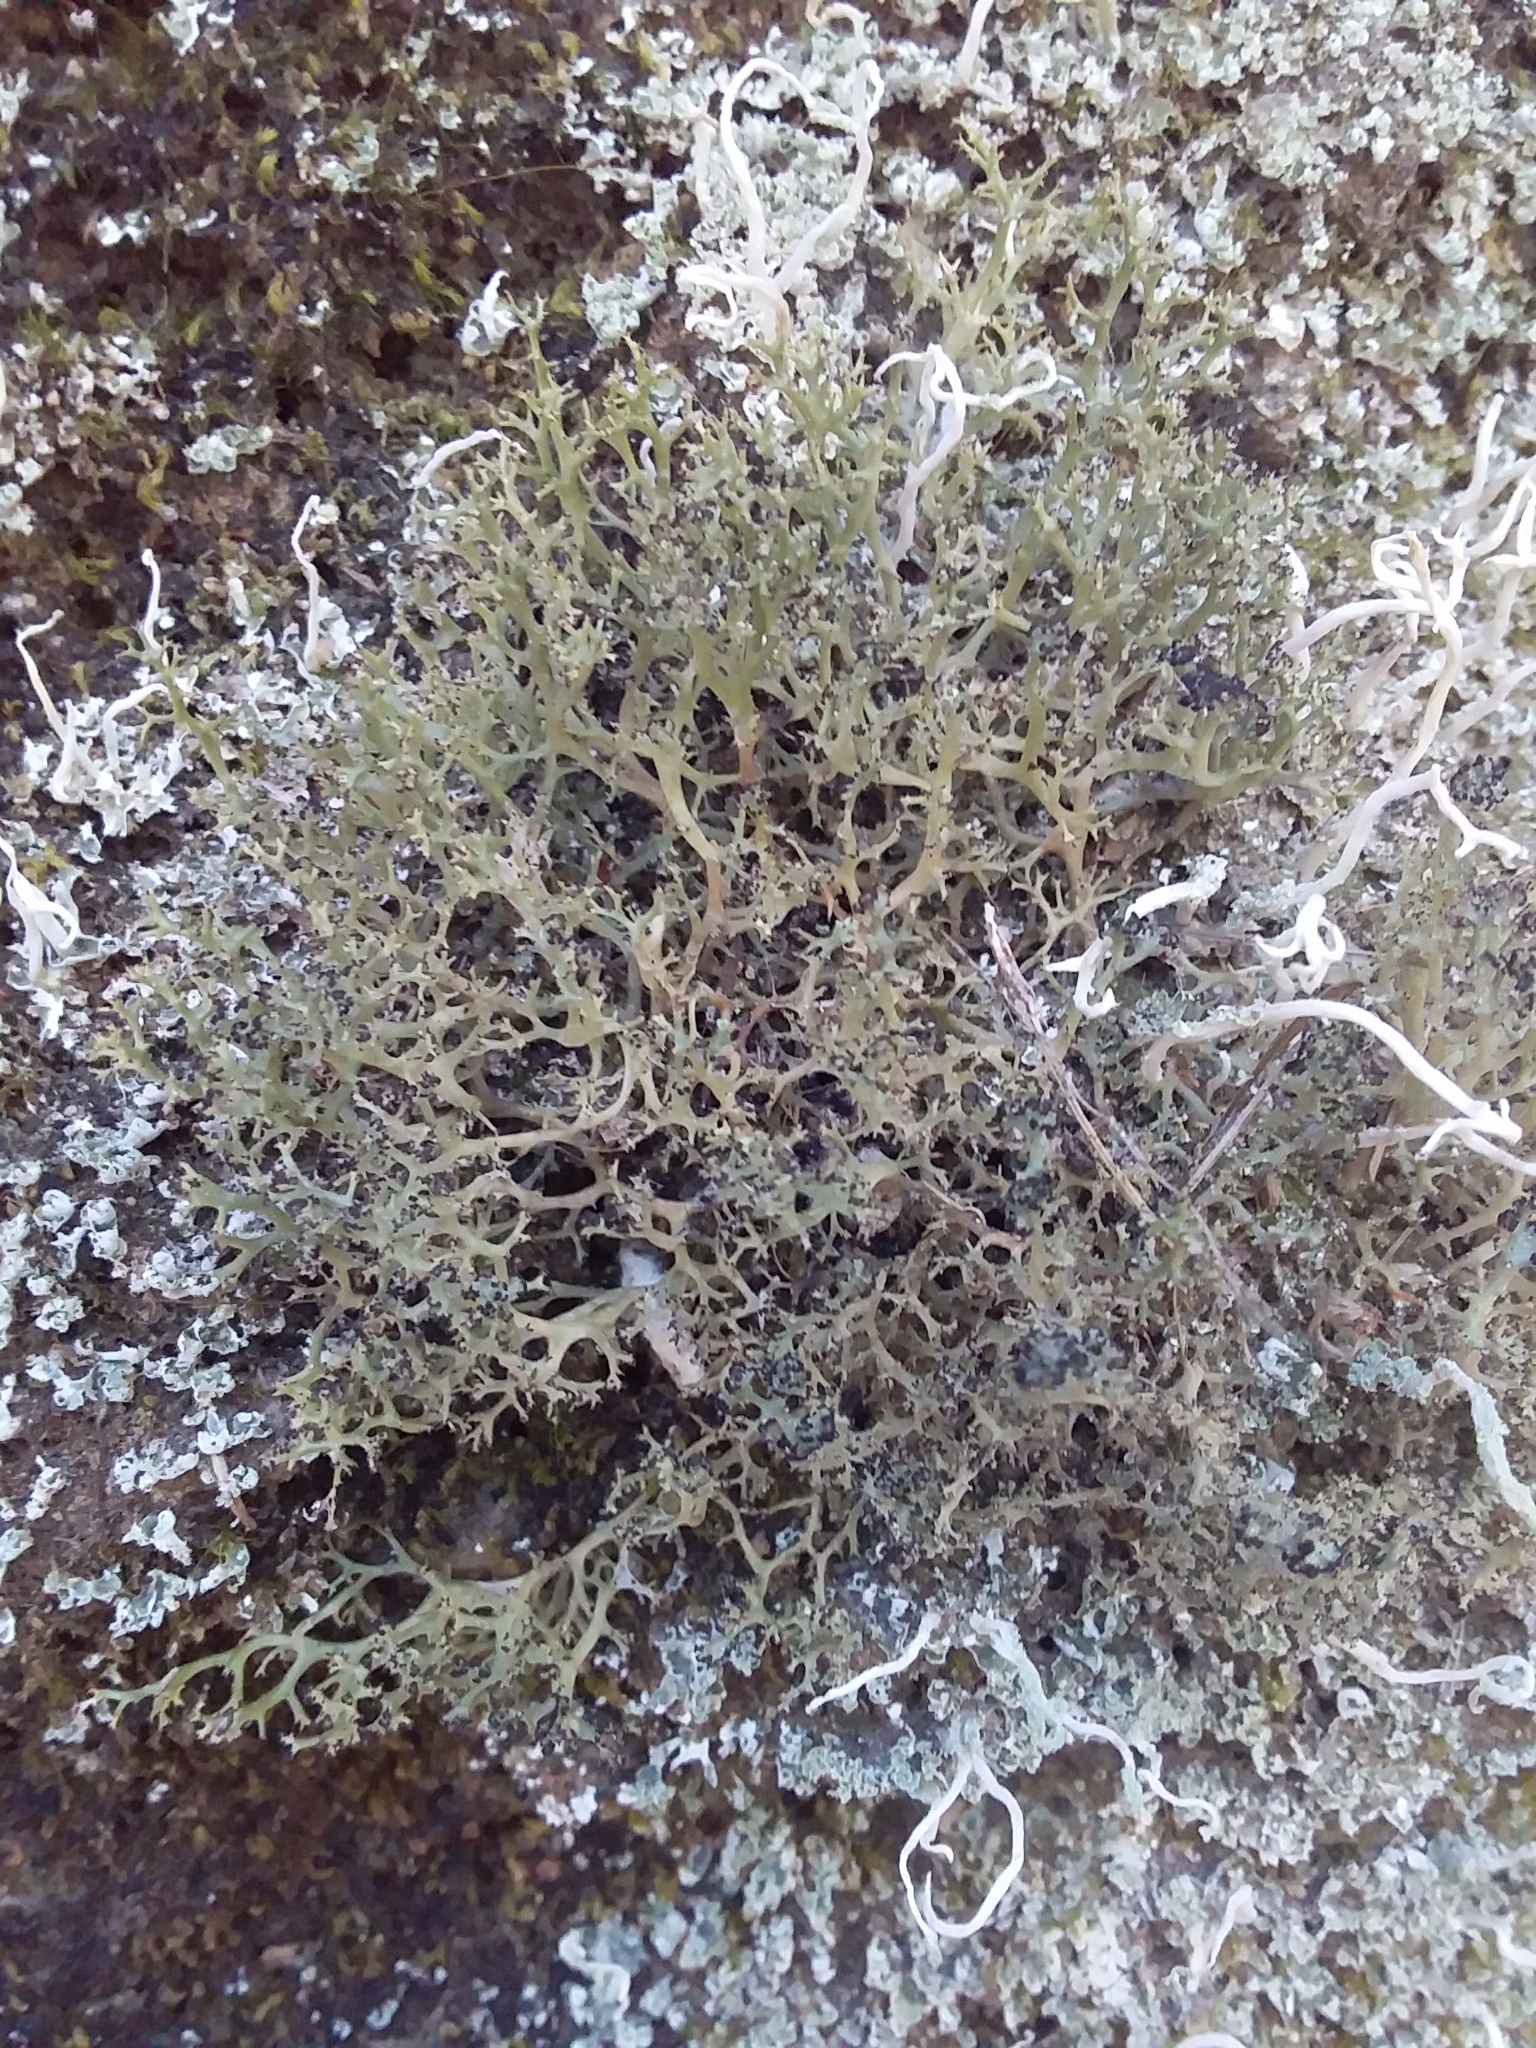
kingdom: Fungi
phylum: Ascomycota
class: Lecanoromycetes
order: Lecanorales
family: Cladoniaceae
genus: Cladia
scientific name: Cladia aggregata
